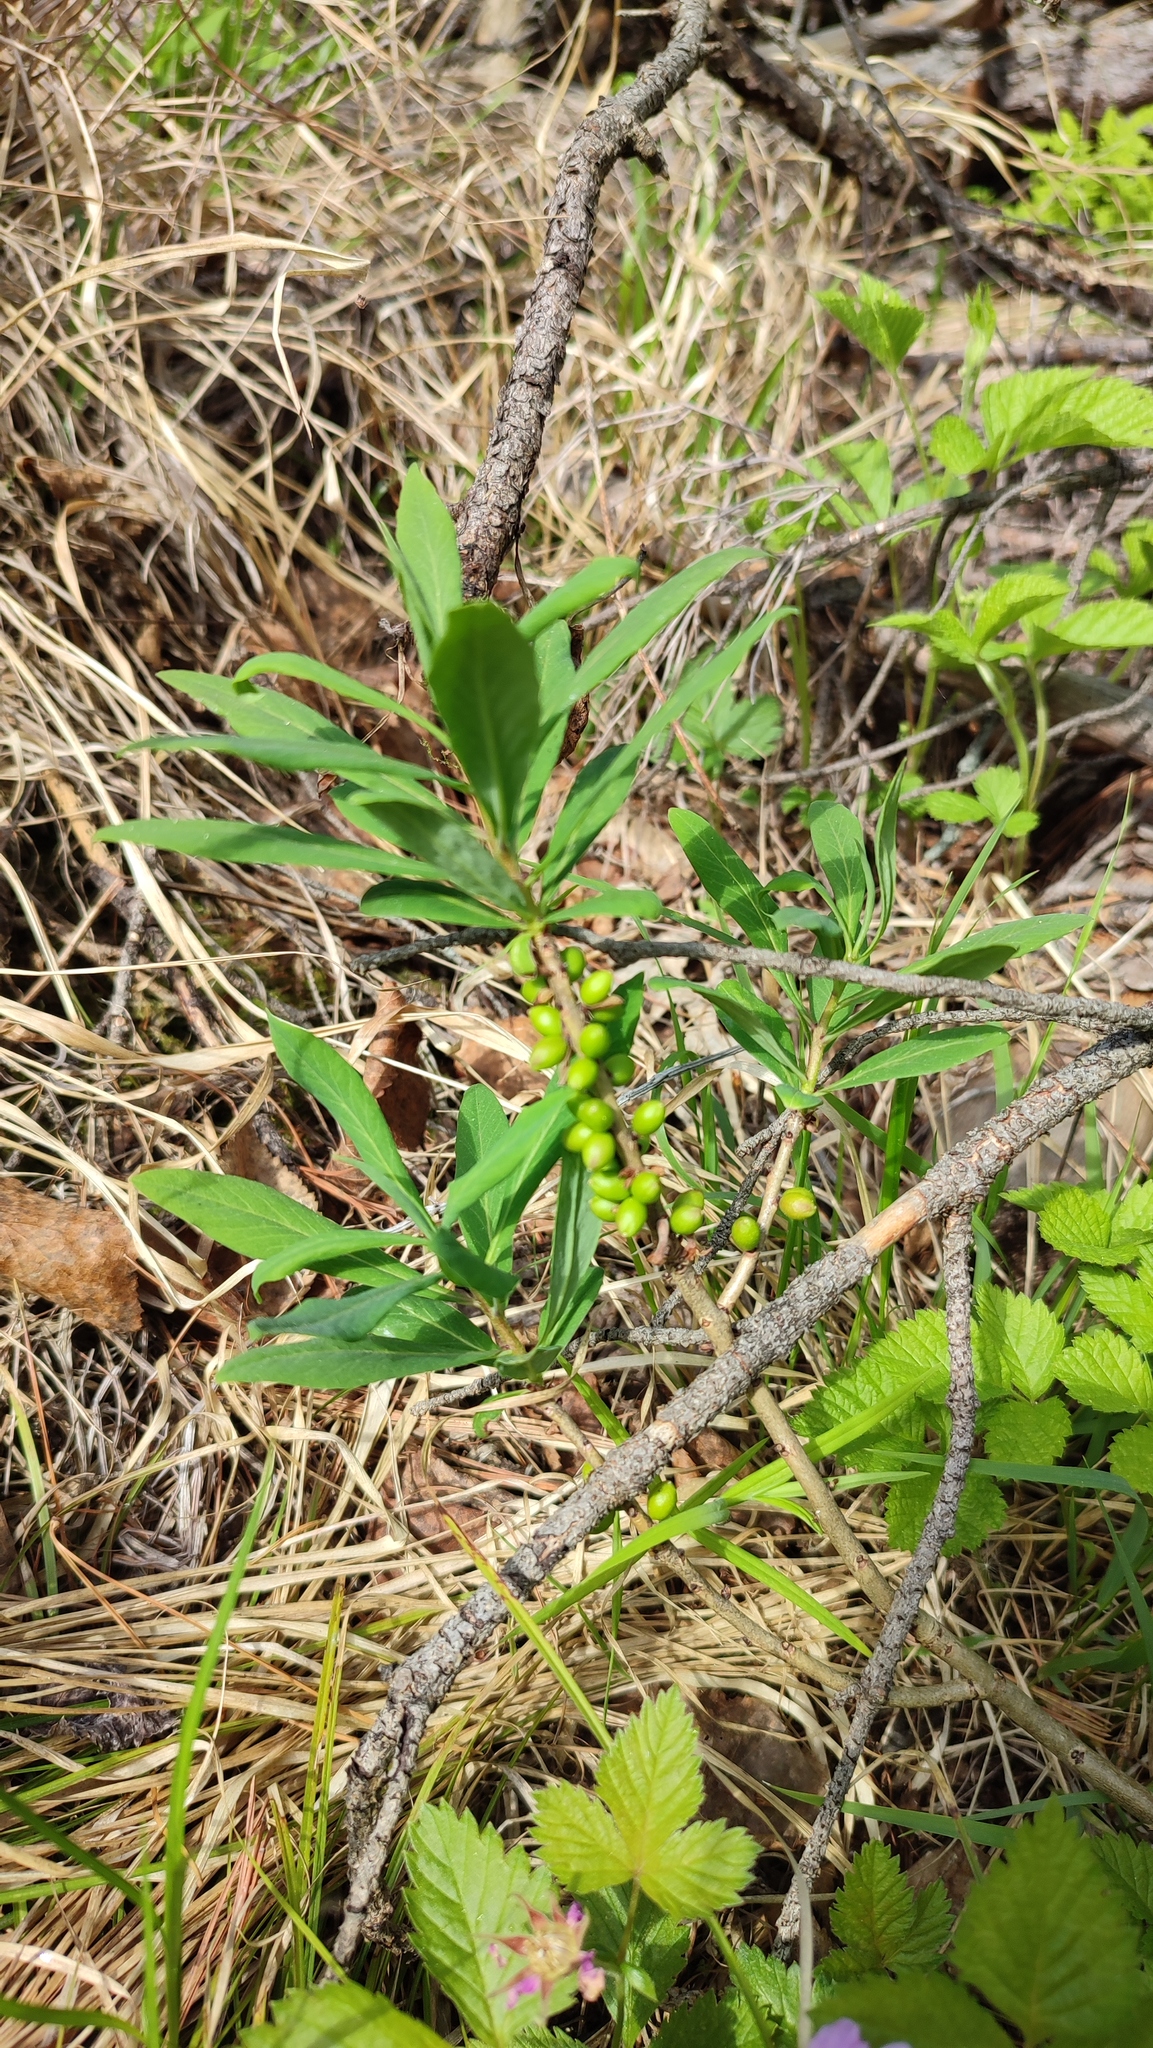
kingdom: Plantae
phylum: Tracheophyta
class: Magnoliopsida
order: Malvales
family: Thymelaeaceae
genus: Daphne
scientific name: Daphne mezereum
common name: Mezereon
